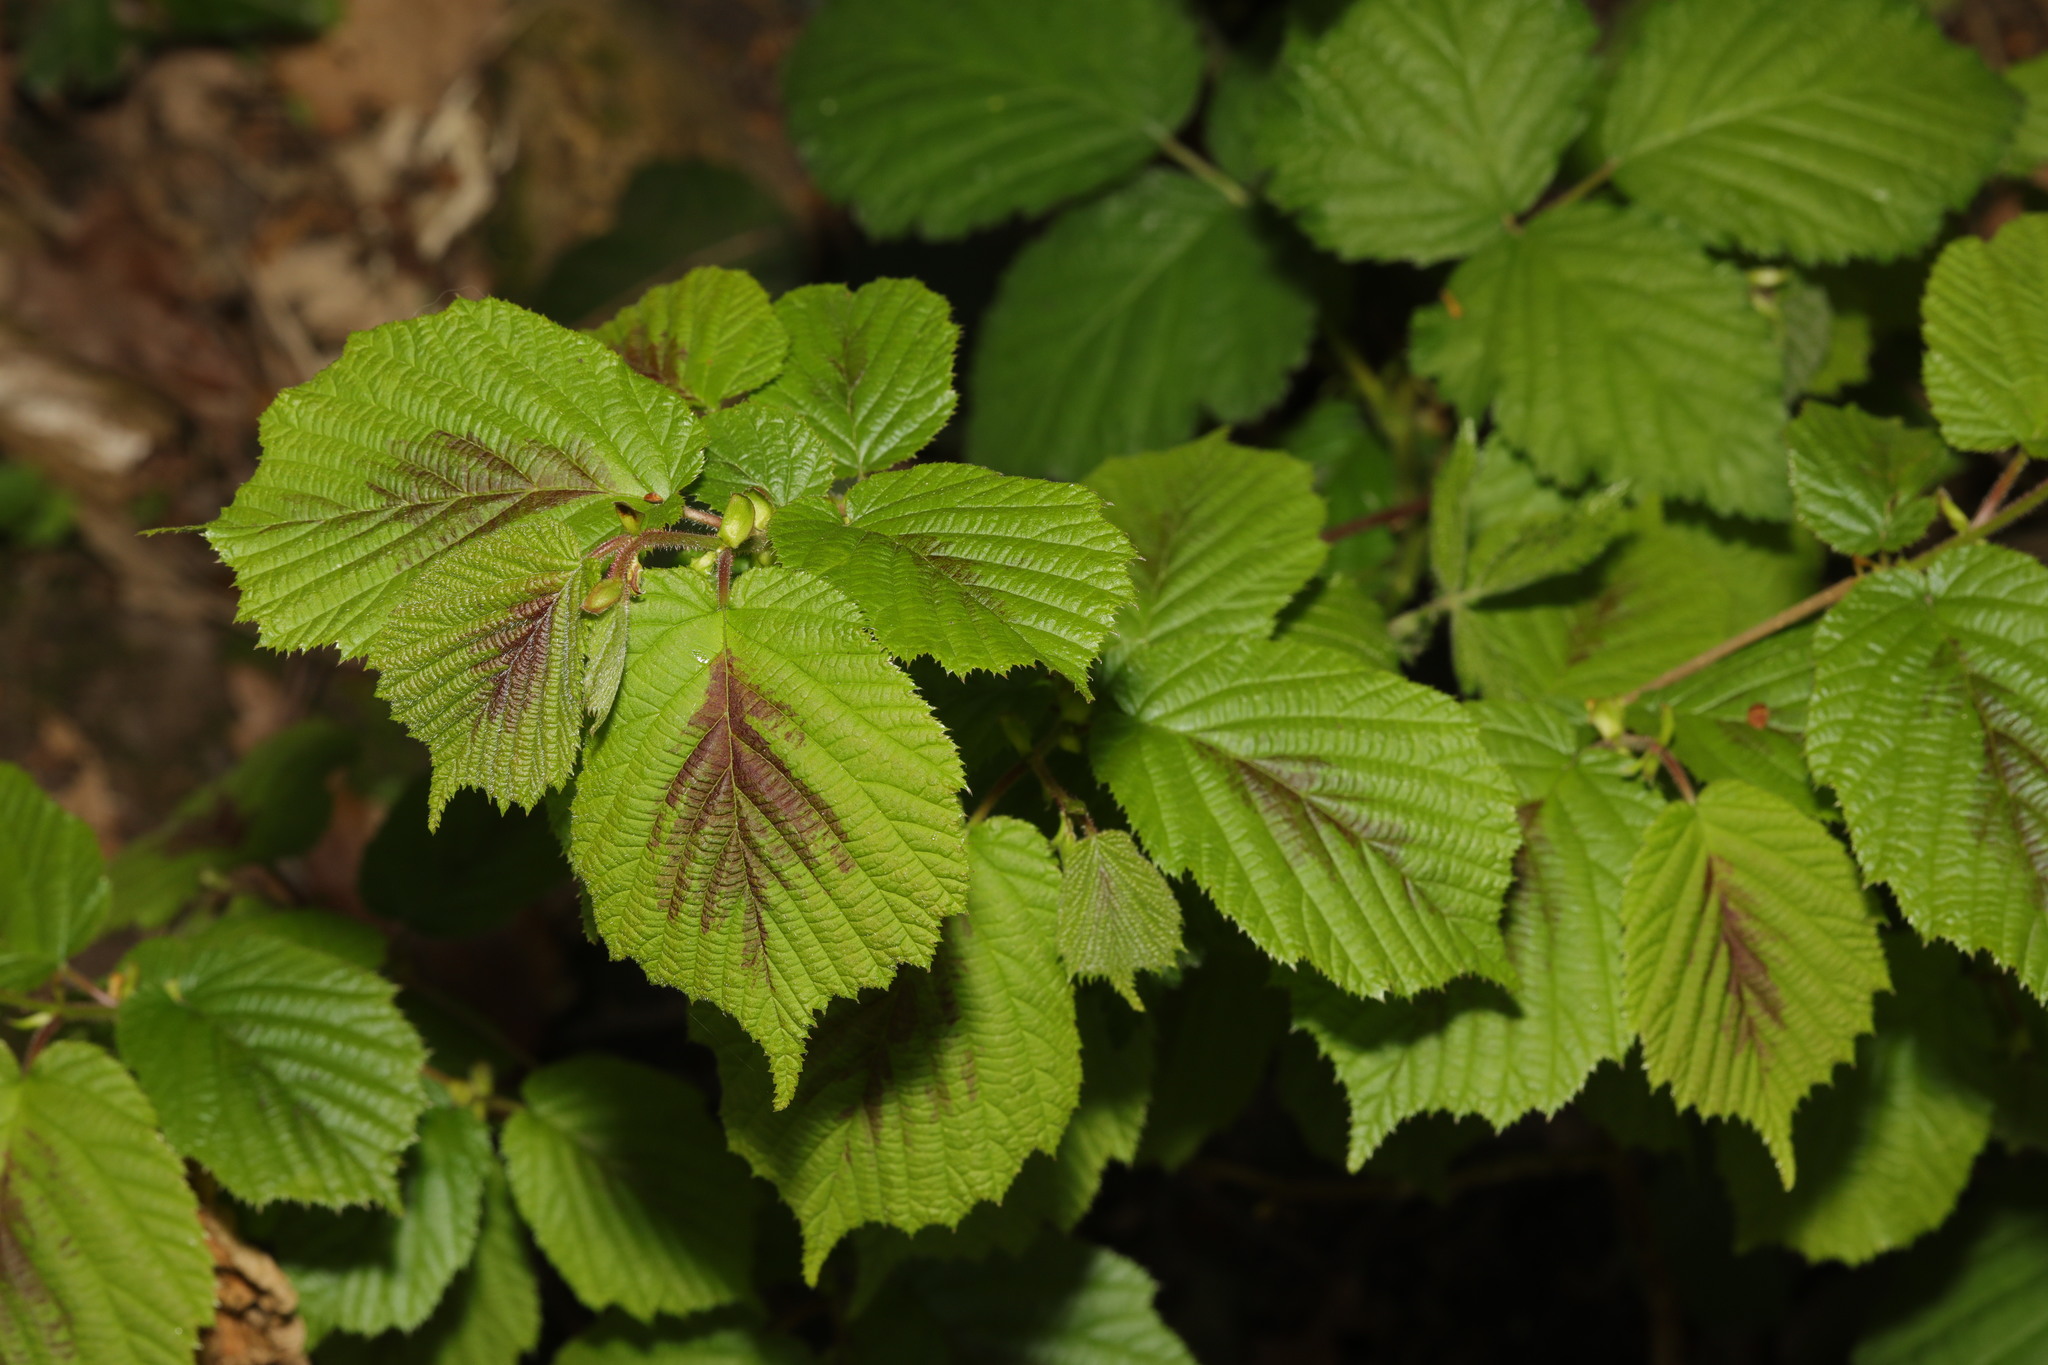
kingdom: Plantae
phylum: Tracheophyta
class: Magnoliopsida
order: Fagales
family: Betulaceae
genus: Corylus
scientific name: Corylus avellana
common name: European hazel
